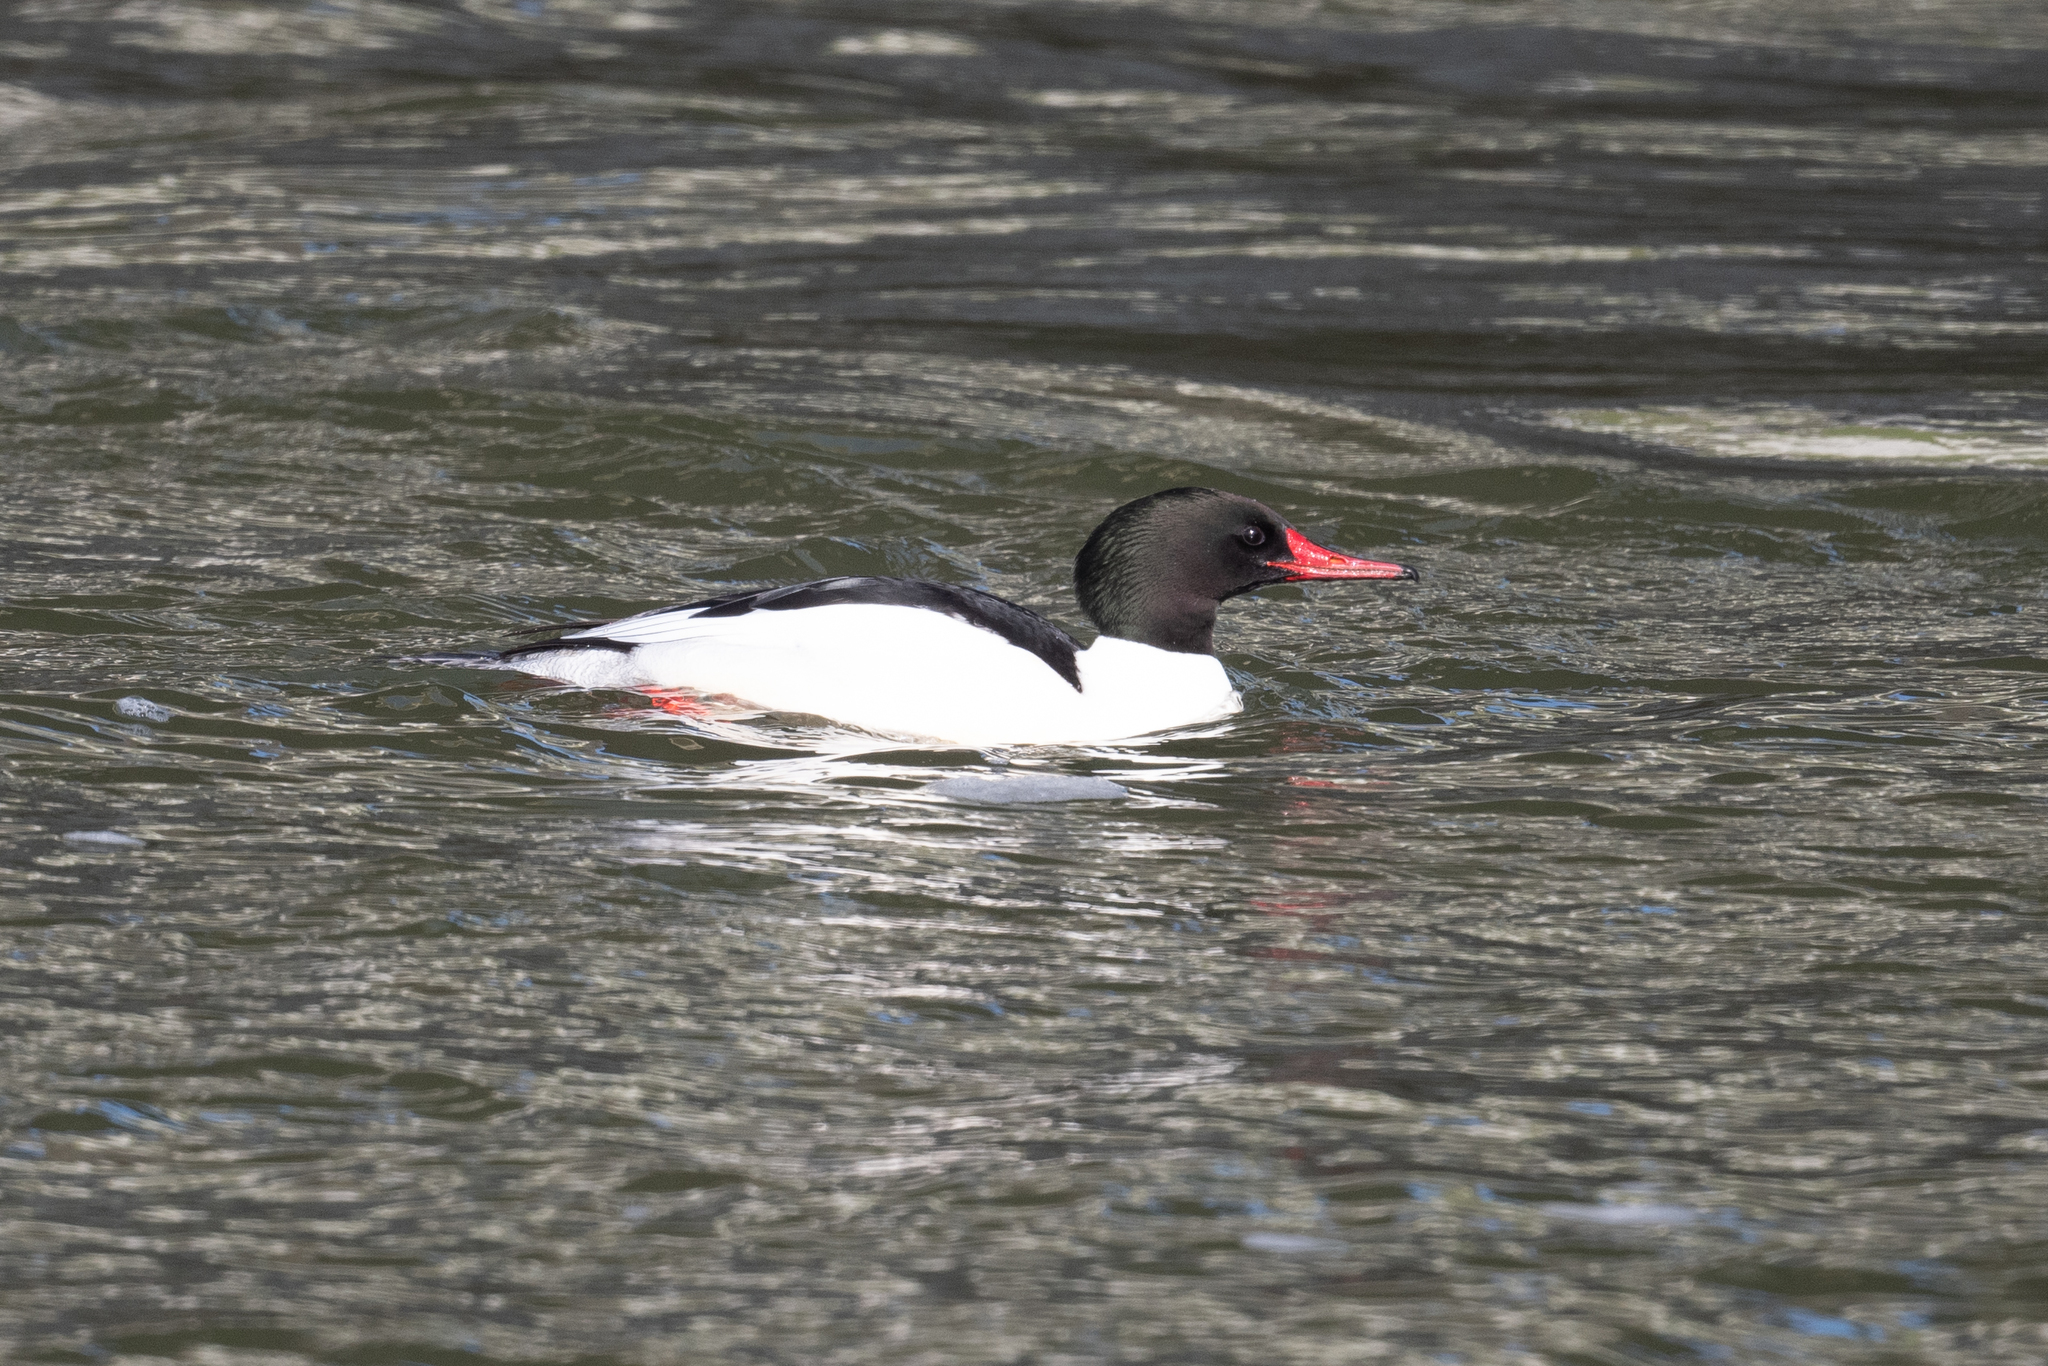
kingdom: Animalia
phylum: Chordata
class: Aves
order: Anseriformes
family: Anatidae
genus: Mergus
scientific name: Mergus merganser
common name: Common merganser
